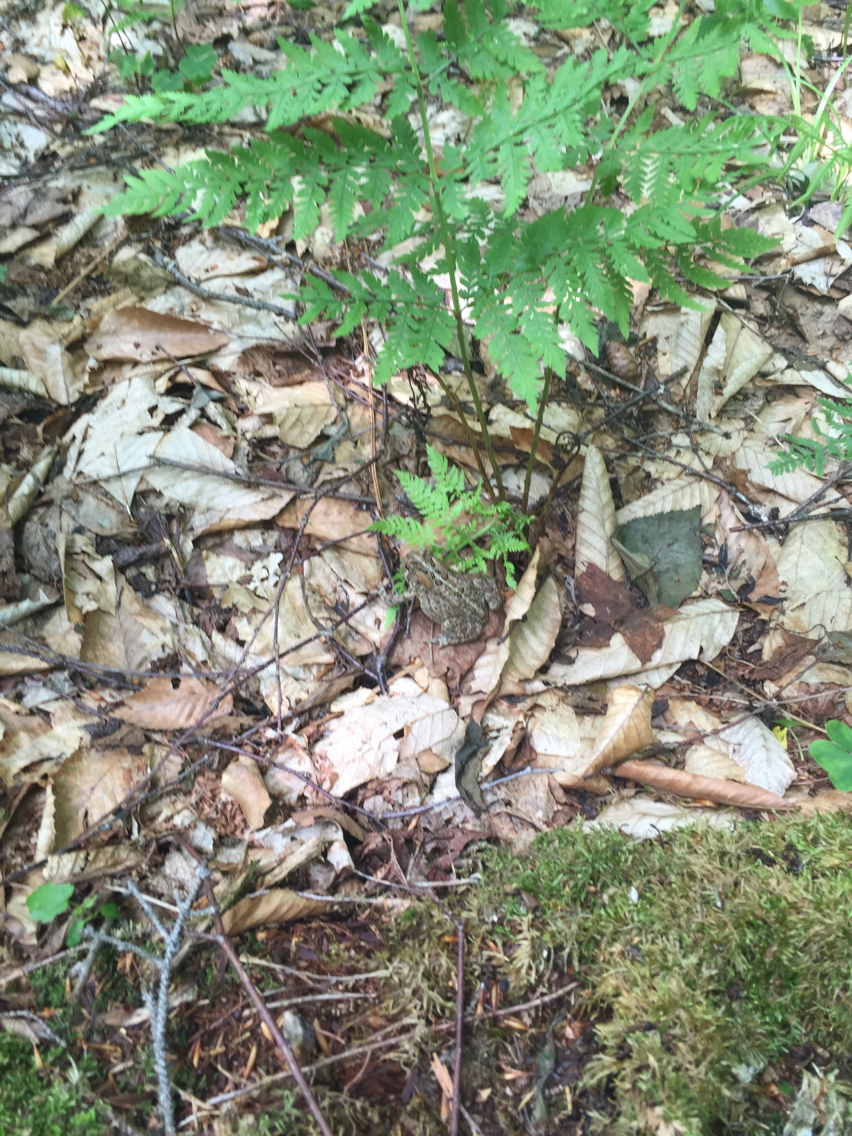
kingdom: Animalia
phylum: Chordata
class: Amphibia
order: Anura
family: Bufonidae
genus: Anaxyrus
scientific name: Anaxyrus americanus
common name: American toad
